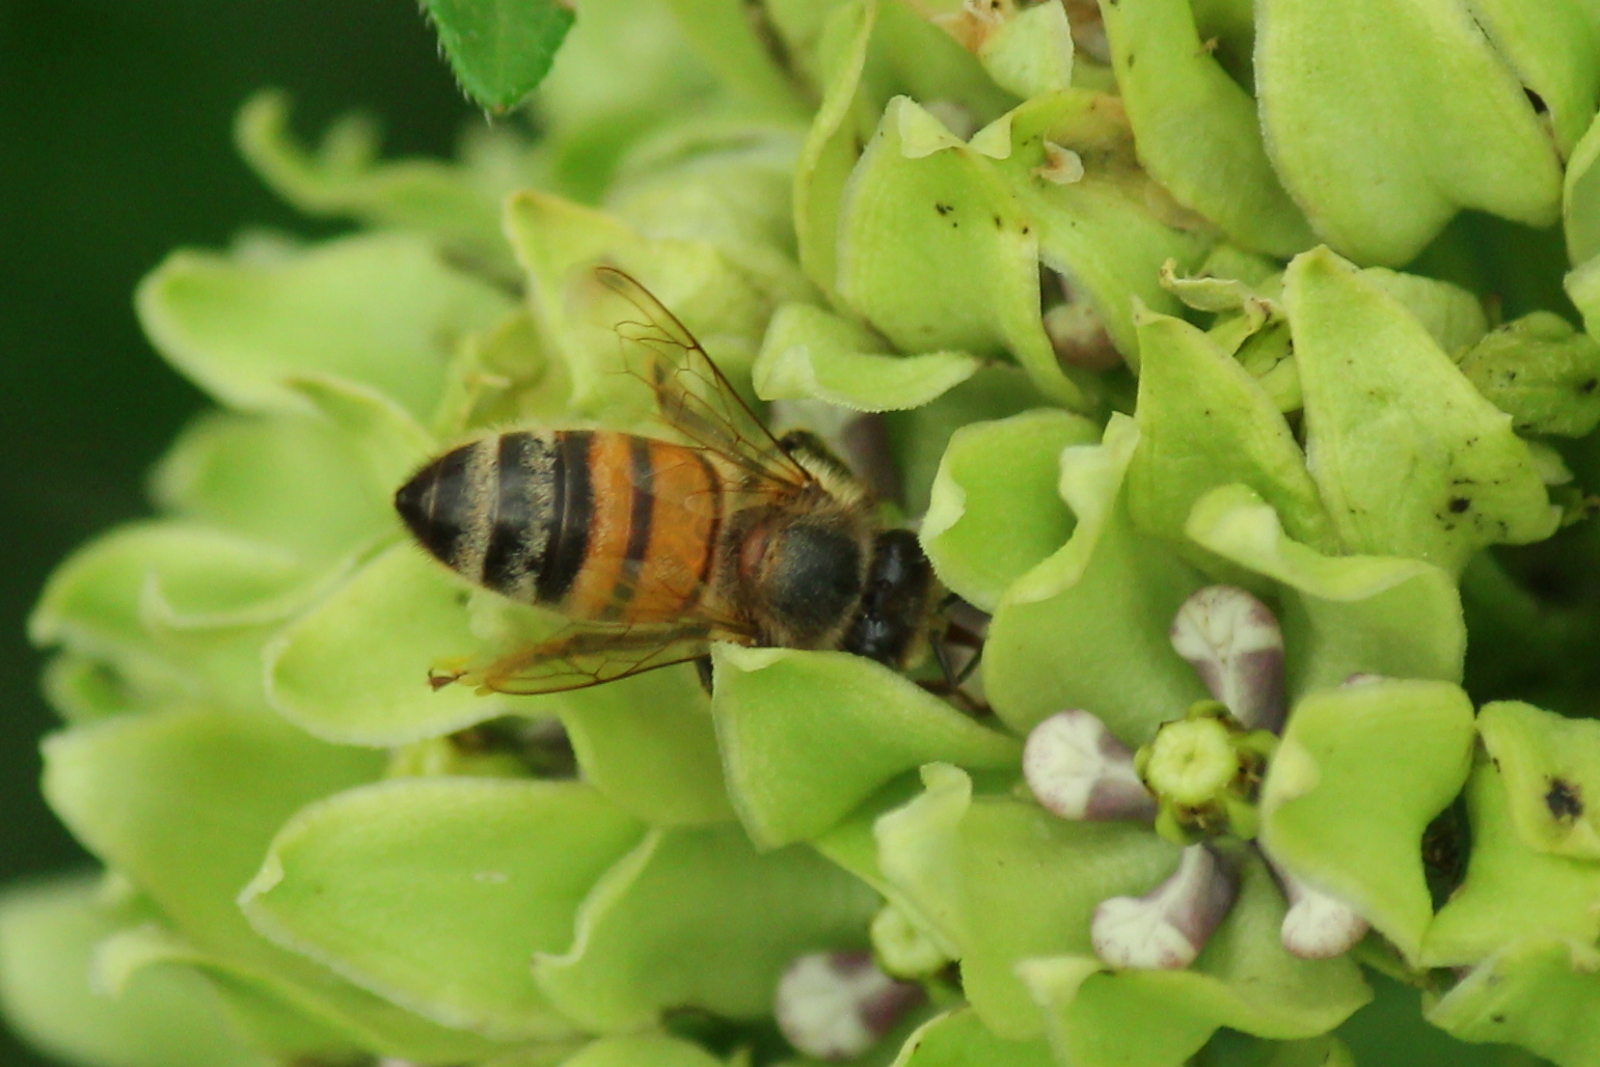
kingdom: Animalia
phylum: Arthropoda
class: Insecta
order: Hymenoptera
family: Apidae
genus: Apis
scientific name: Apis mellifera
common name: Honey bee
